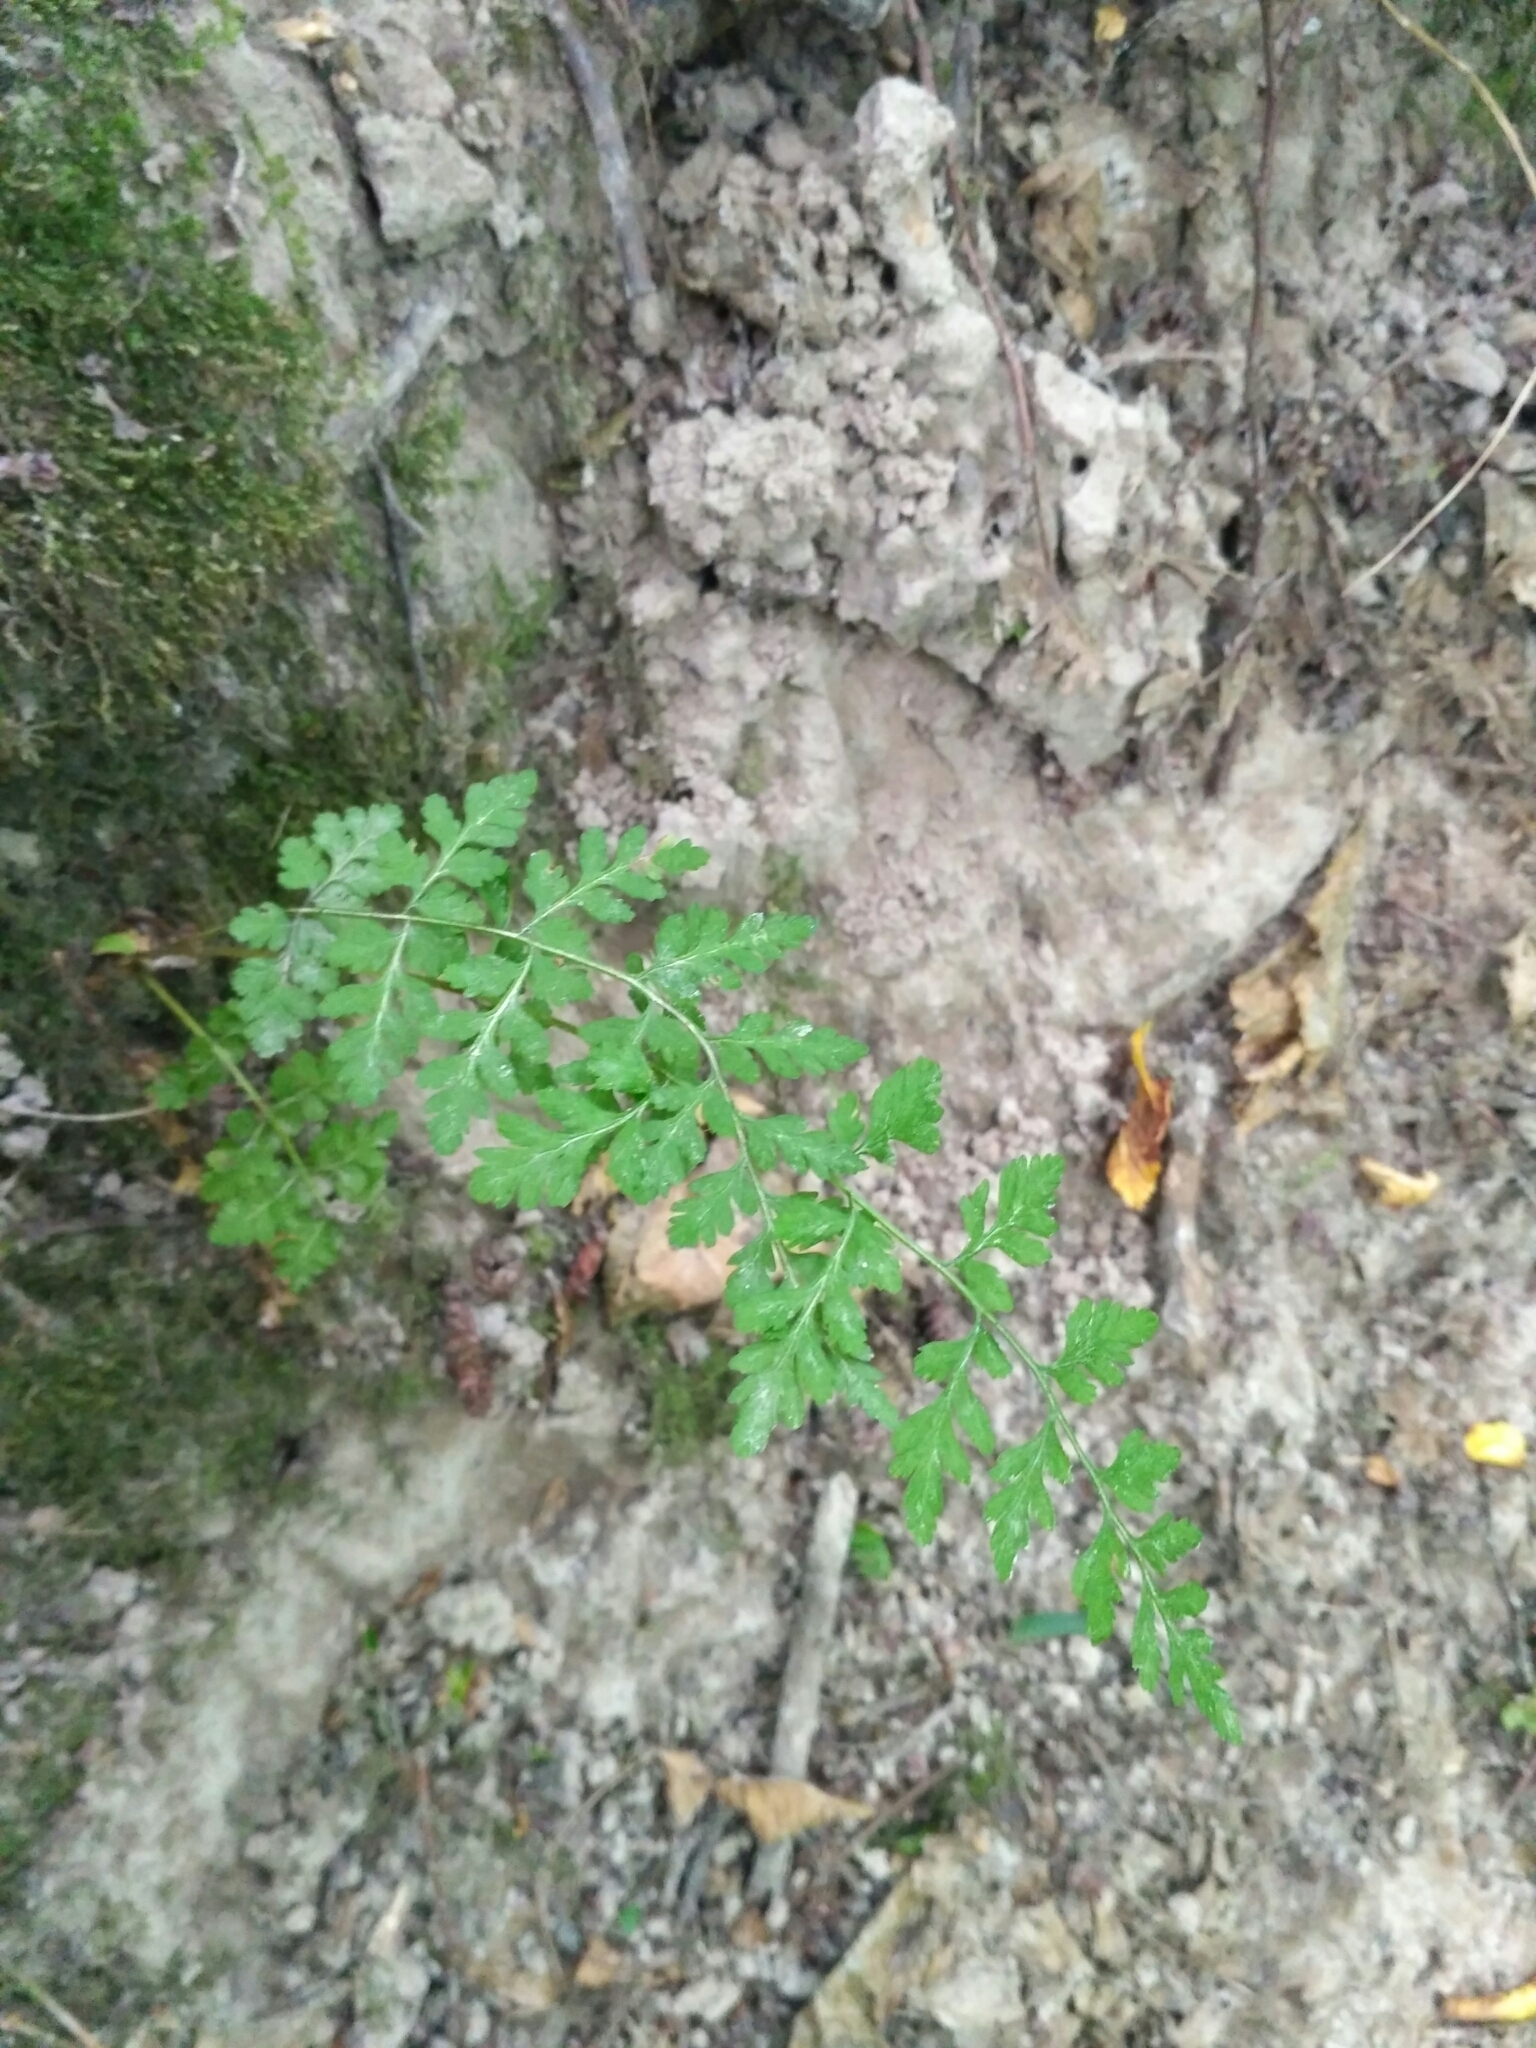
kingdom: Plantae
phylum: Tracheophyta
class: Polypodiopsida
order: Polypodiales
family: Cystopteridaceae
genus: Cystopteris
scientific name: Cystopteris fragilis
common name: Brittle bladder fern
